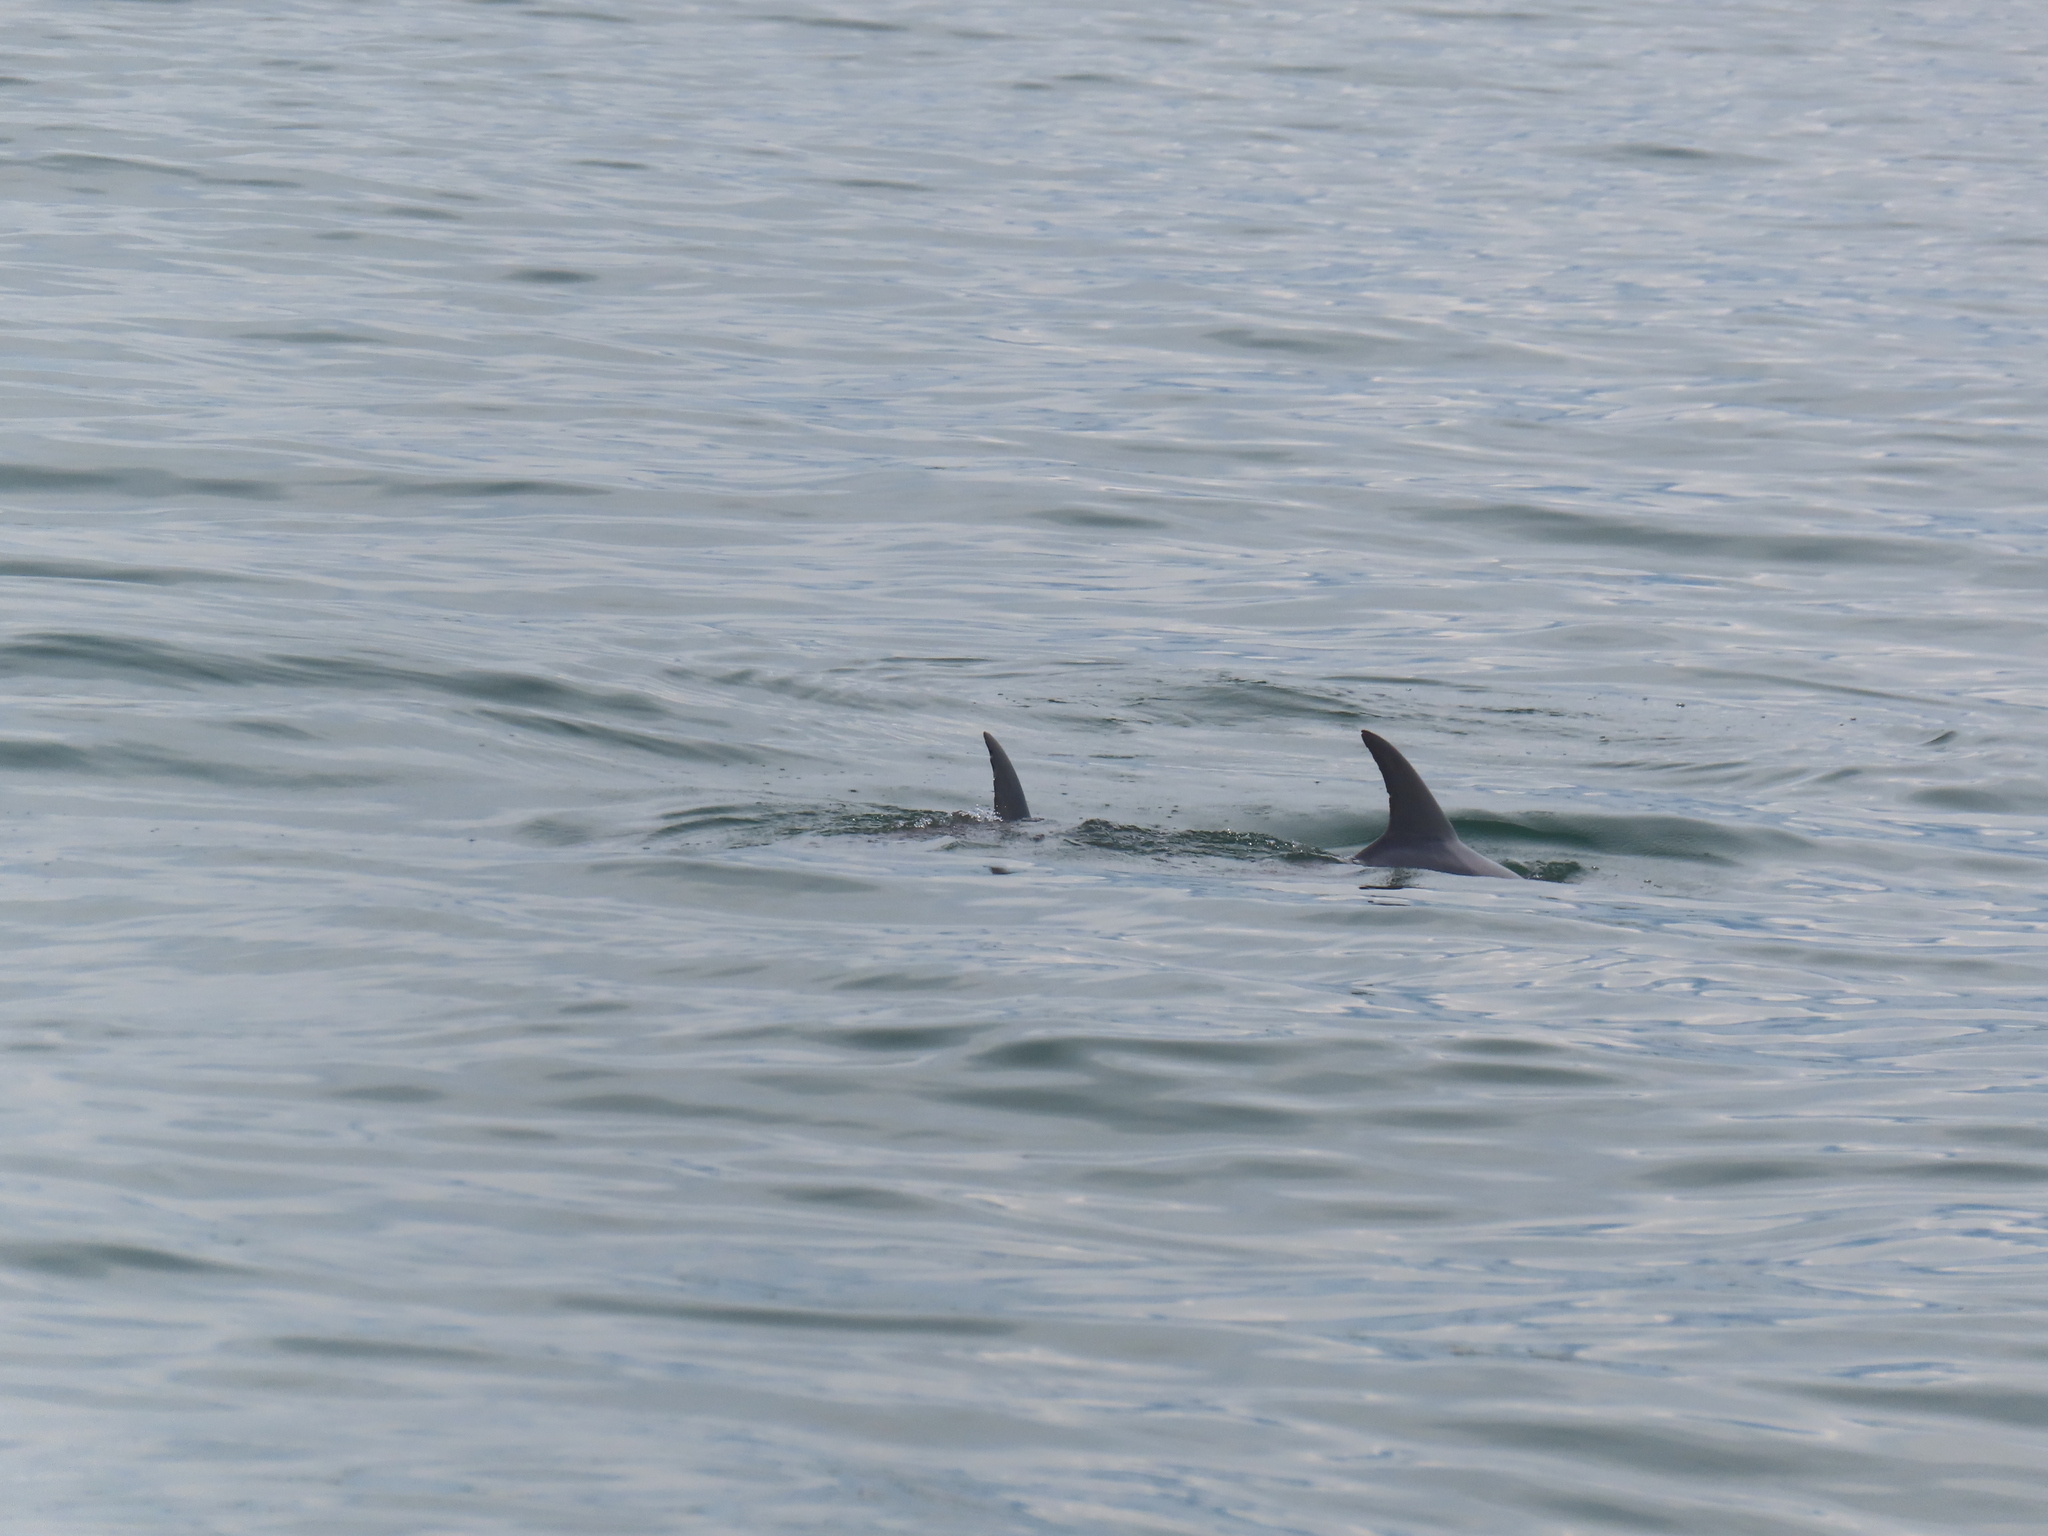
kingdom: Animalia
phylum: Chordata
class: Mammalia
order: Cetacea
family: Delphinidae
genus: Tursiops
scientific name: Tursiops truncatus
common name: Bottlenose dolphin
